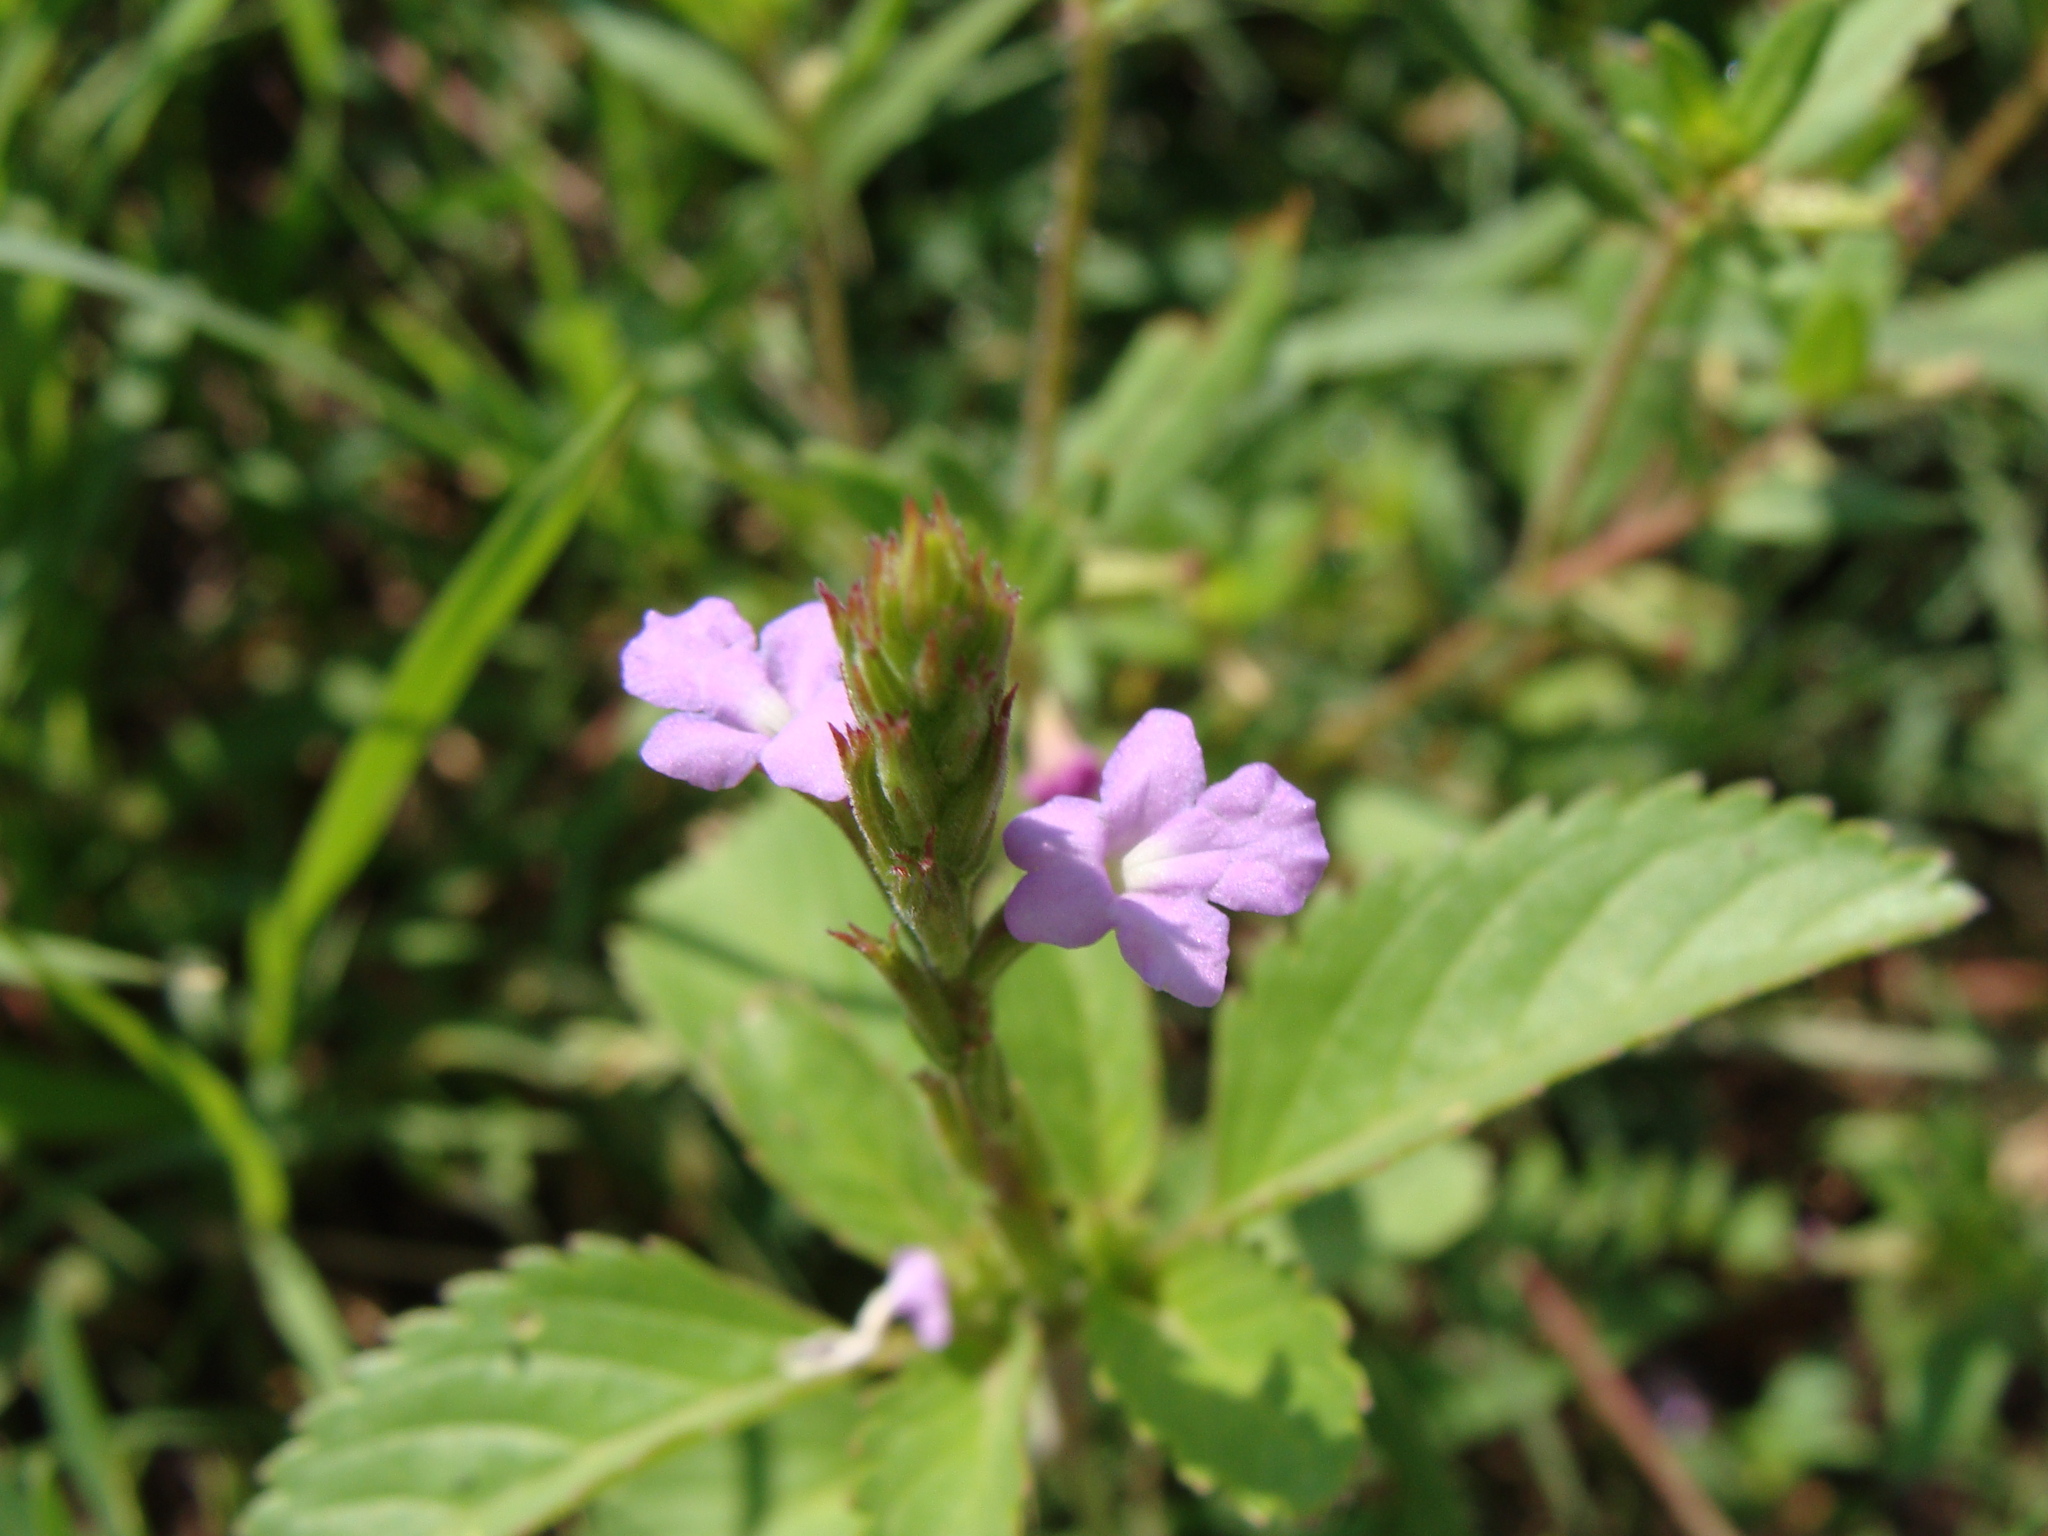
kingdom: Plantae
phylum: Tracheophyta
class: Magnoliopsida
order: Lamiales
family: Verbenaceae
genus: Bouchea
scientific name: Bouchea prismatica
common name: Vervine
